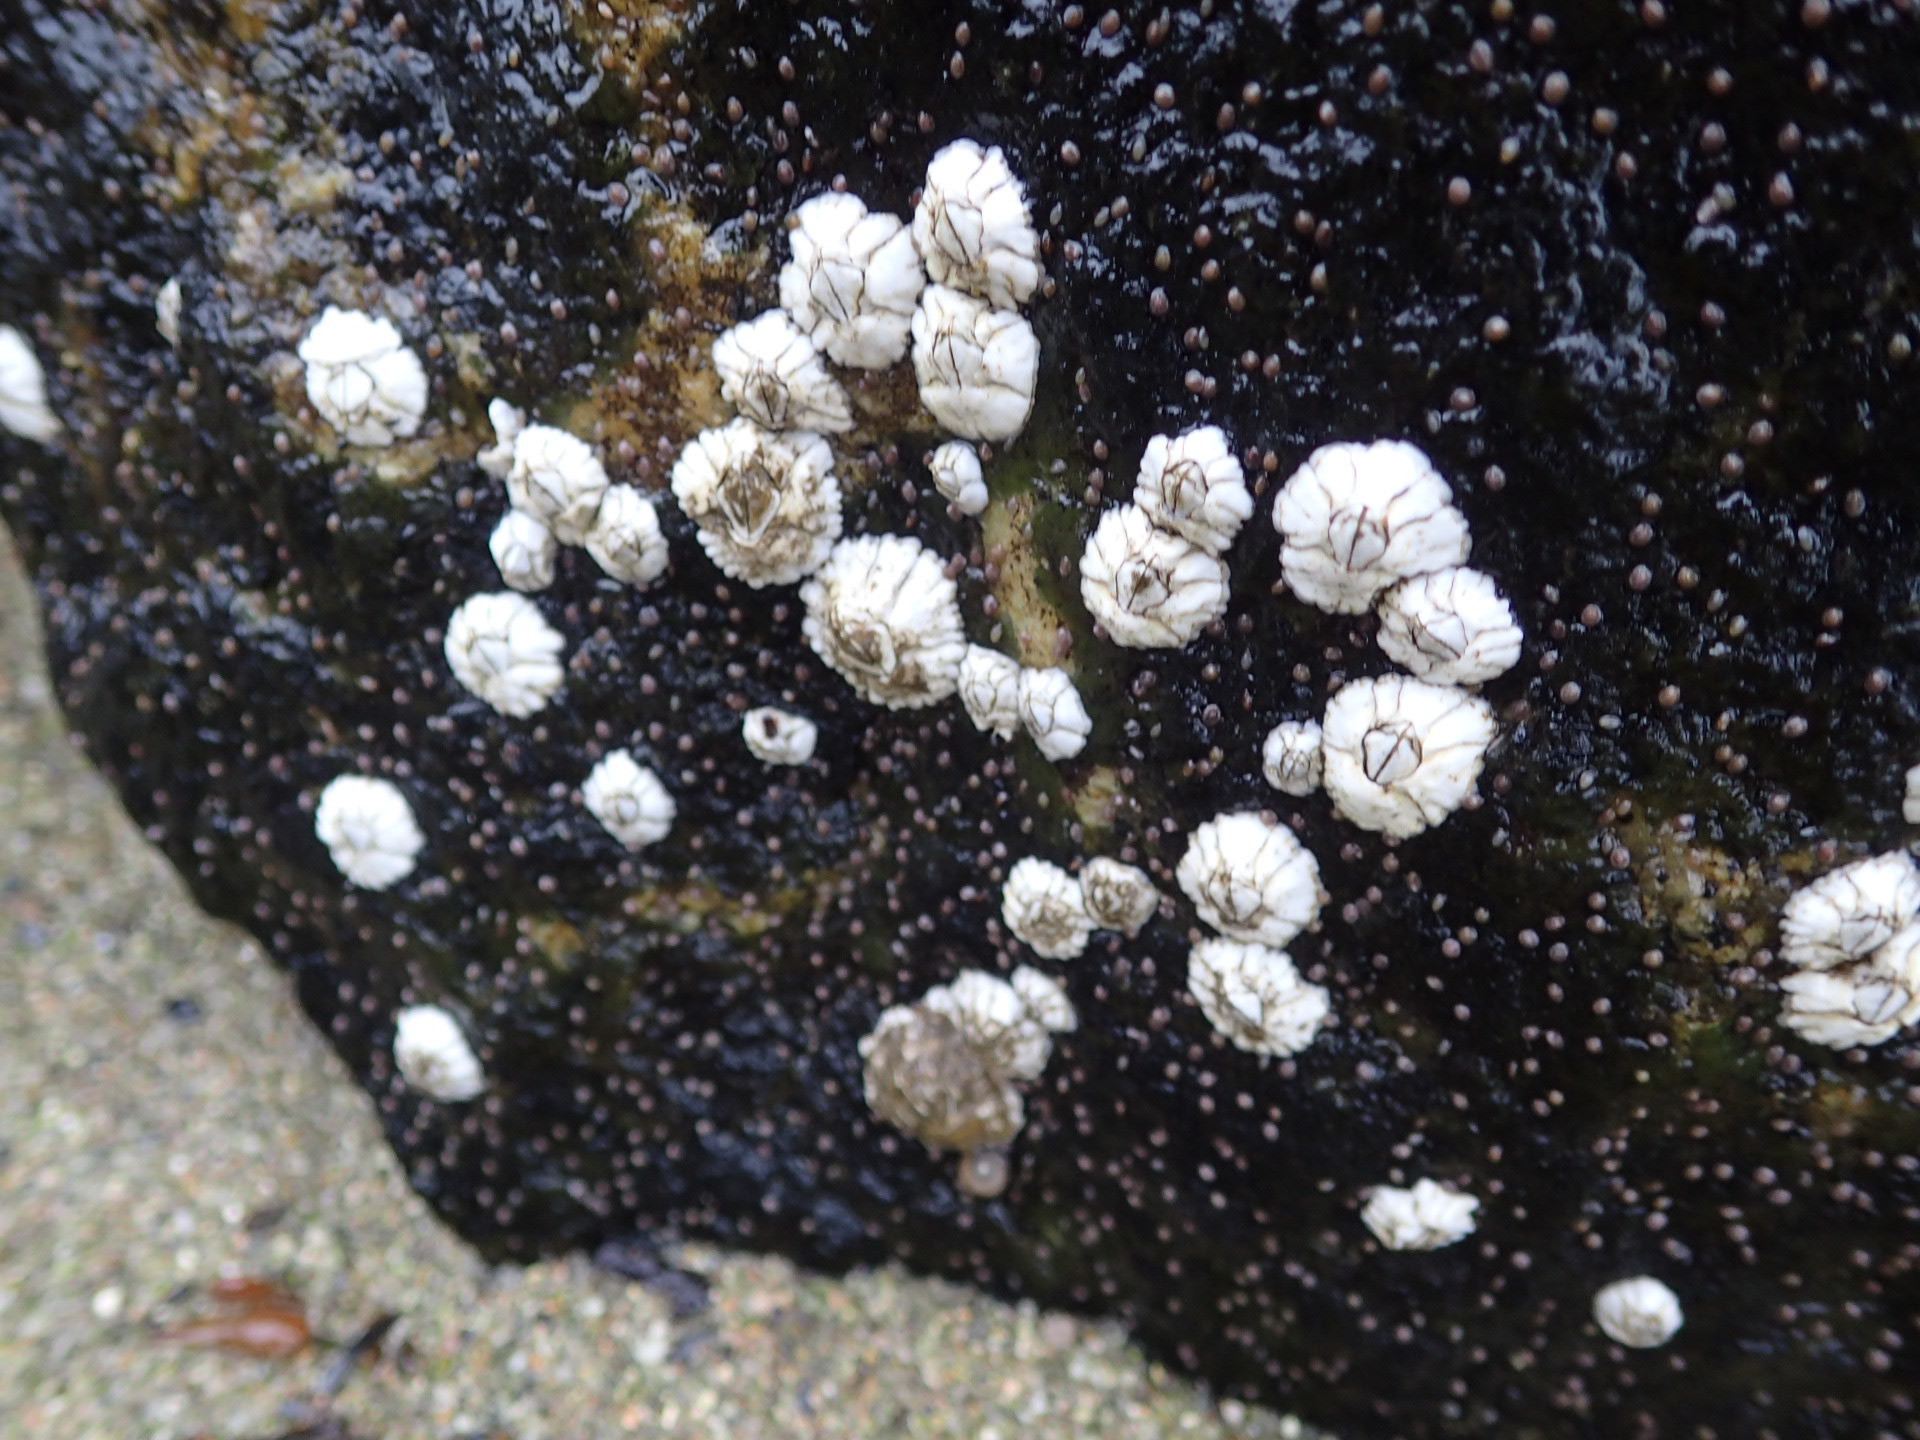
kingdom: Animalia
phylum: Arthropoda
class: Maxillopoda
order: Sessilia
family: Archaeobalanidae
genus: Semibalanus
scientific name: Semibalanus balanoides
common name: Acorn barnacle
